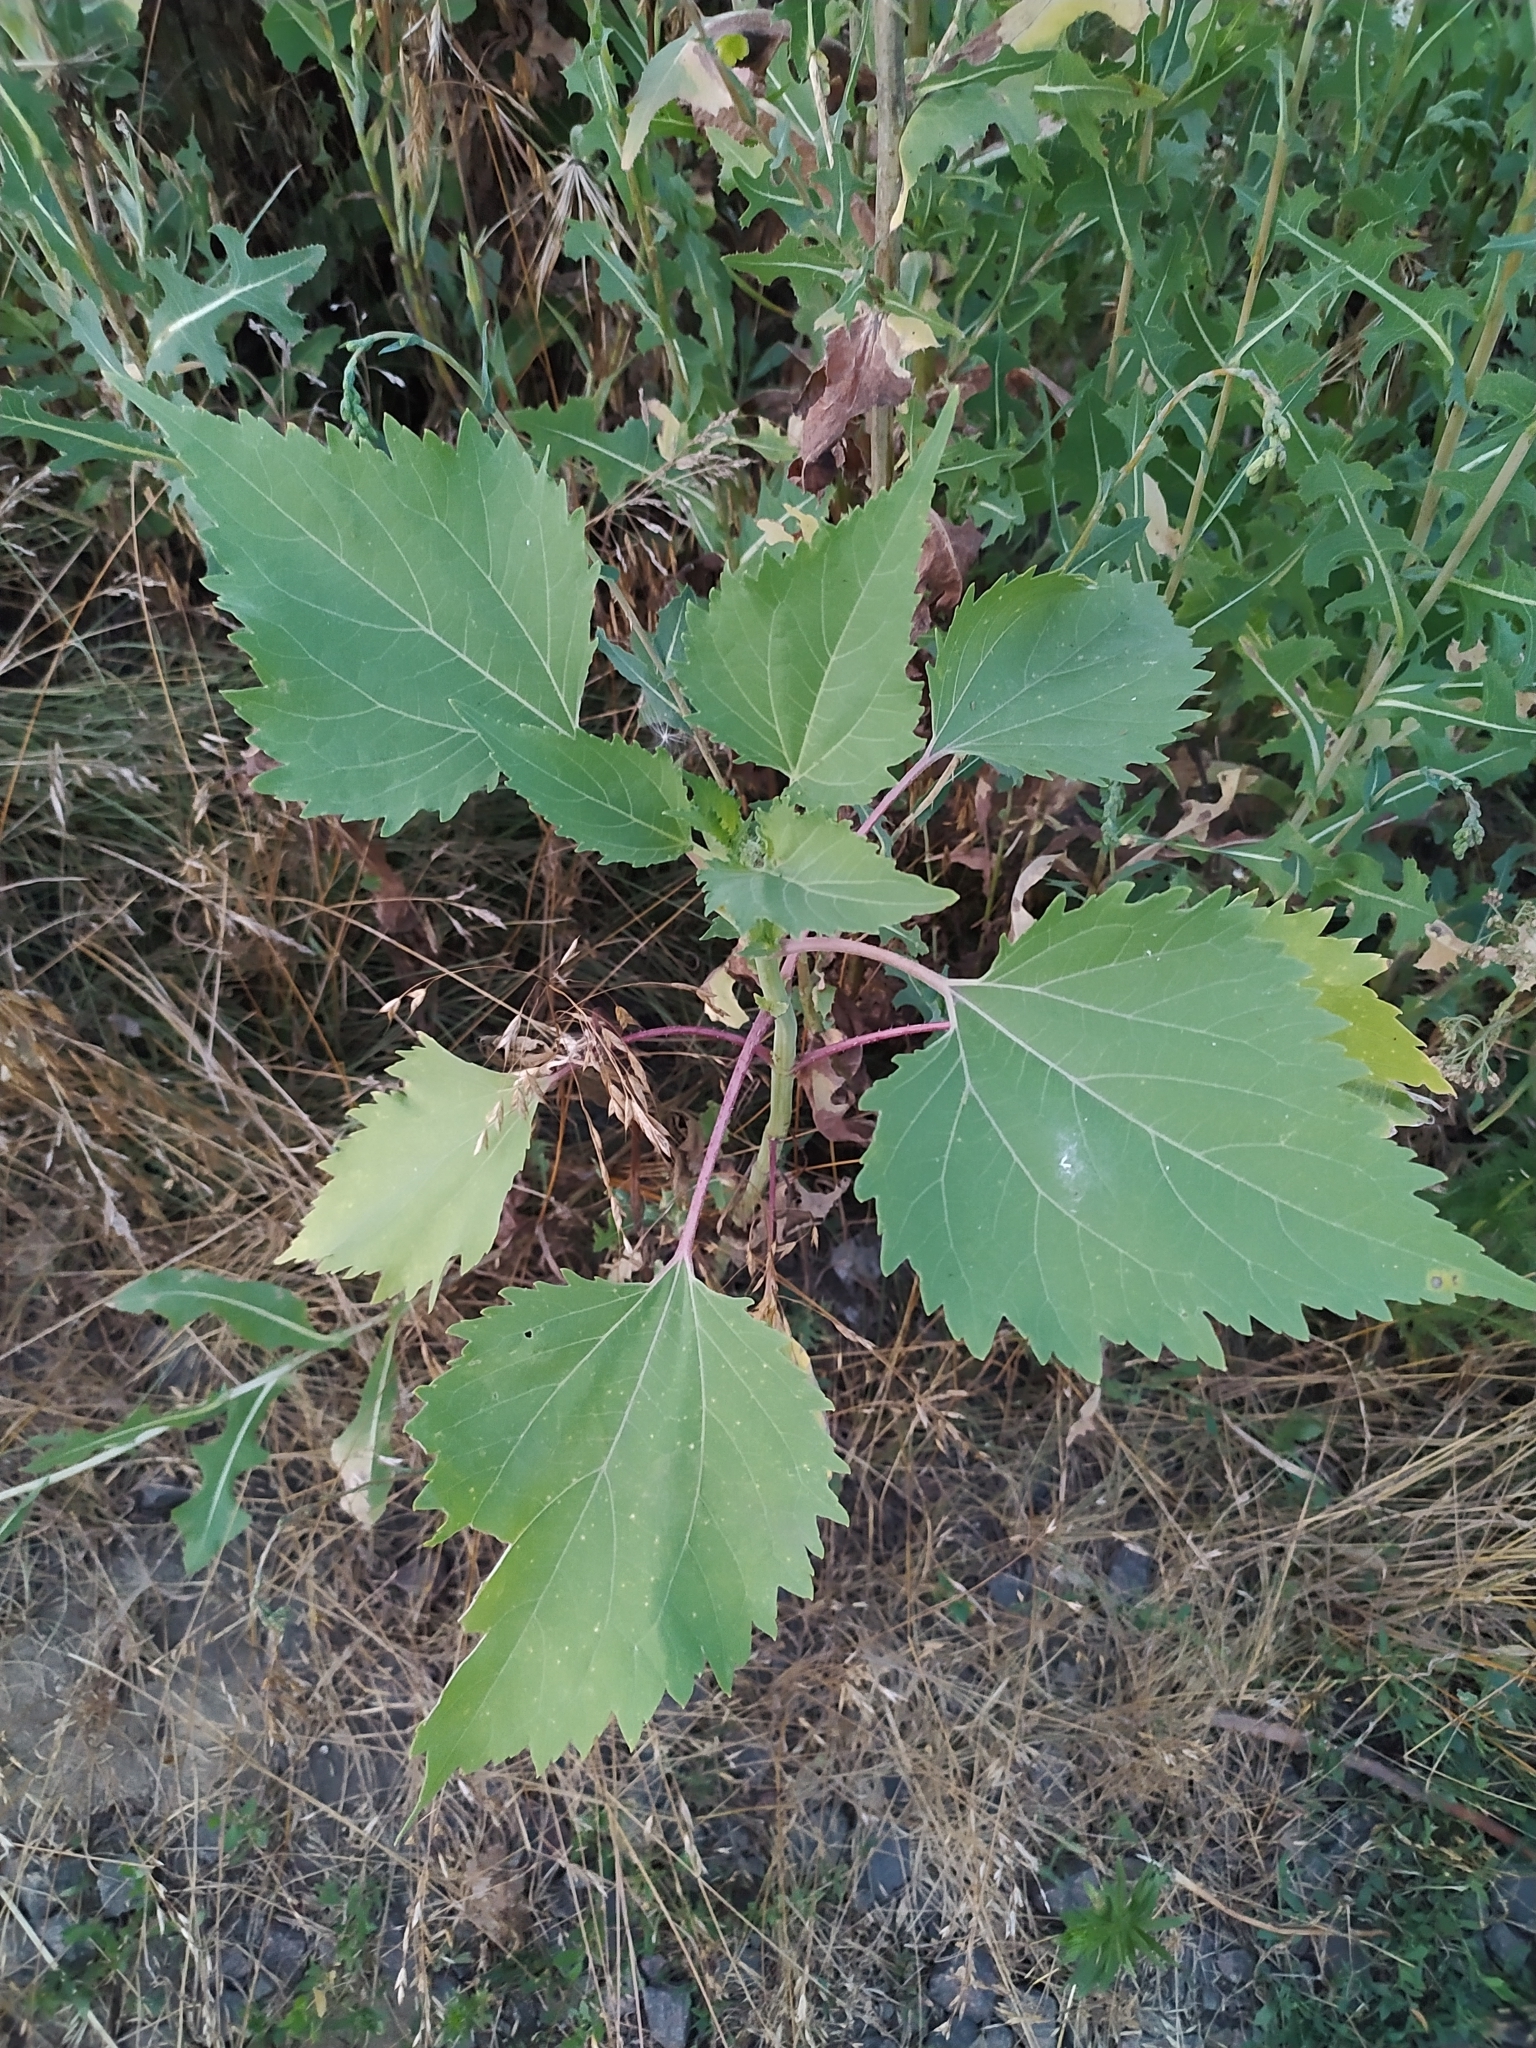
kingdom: Plantae
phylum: Tracheophyta
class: Magnoliopsida
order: Asterales
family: Asteraceae
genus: Cyclachaena
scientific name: Cyclachaena xanthiifolia
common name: Giant sumpweed
